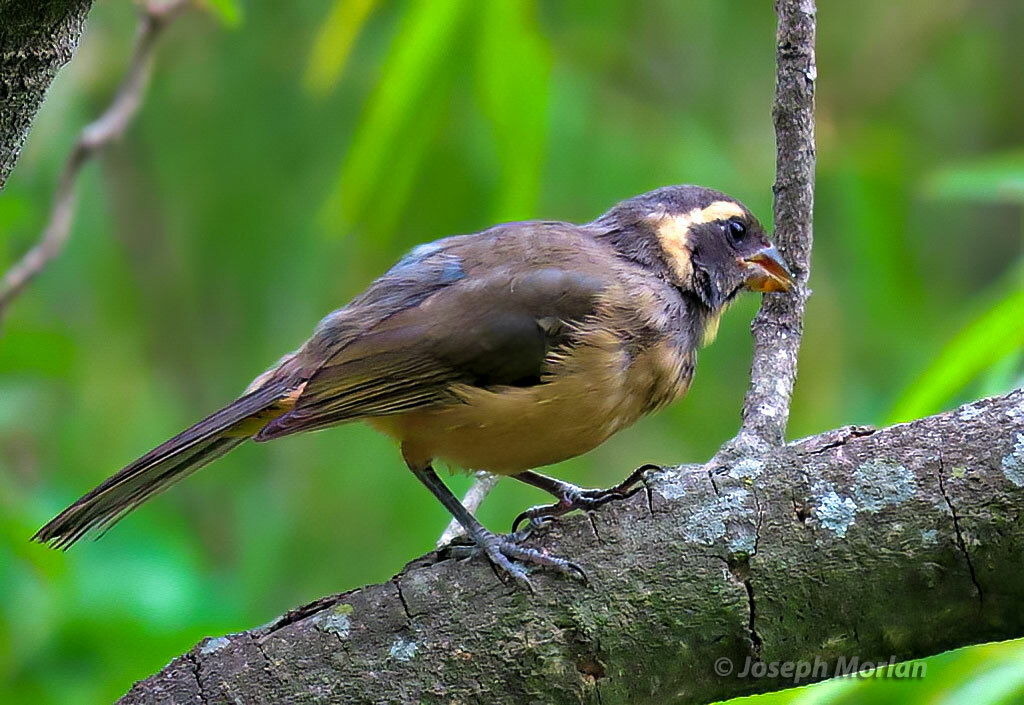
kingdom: Animalia
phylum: Chordata
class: Aves
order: Passeriformes
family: Thraupidae
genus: Saltator
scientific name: Saltator aurantiirostris
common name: Golden-billed saltator
